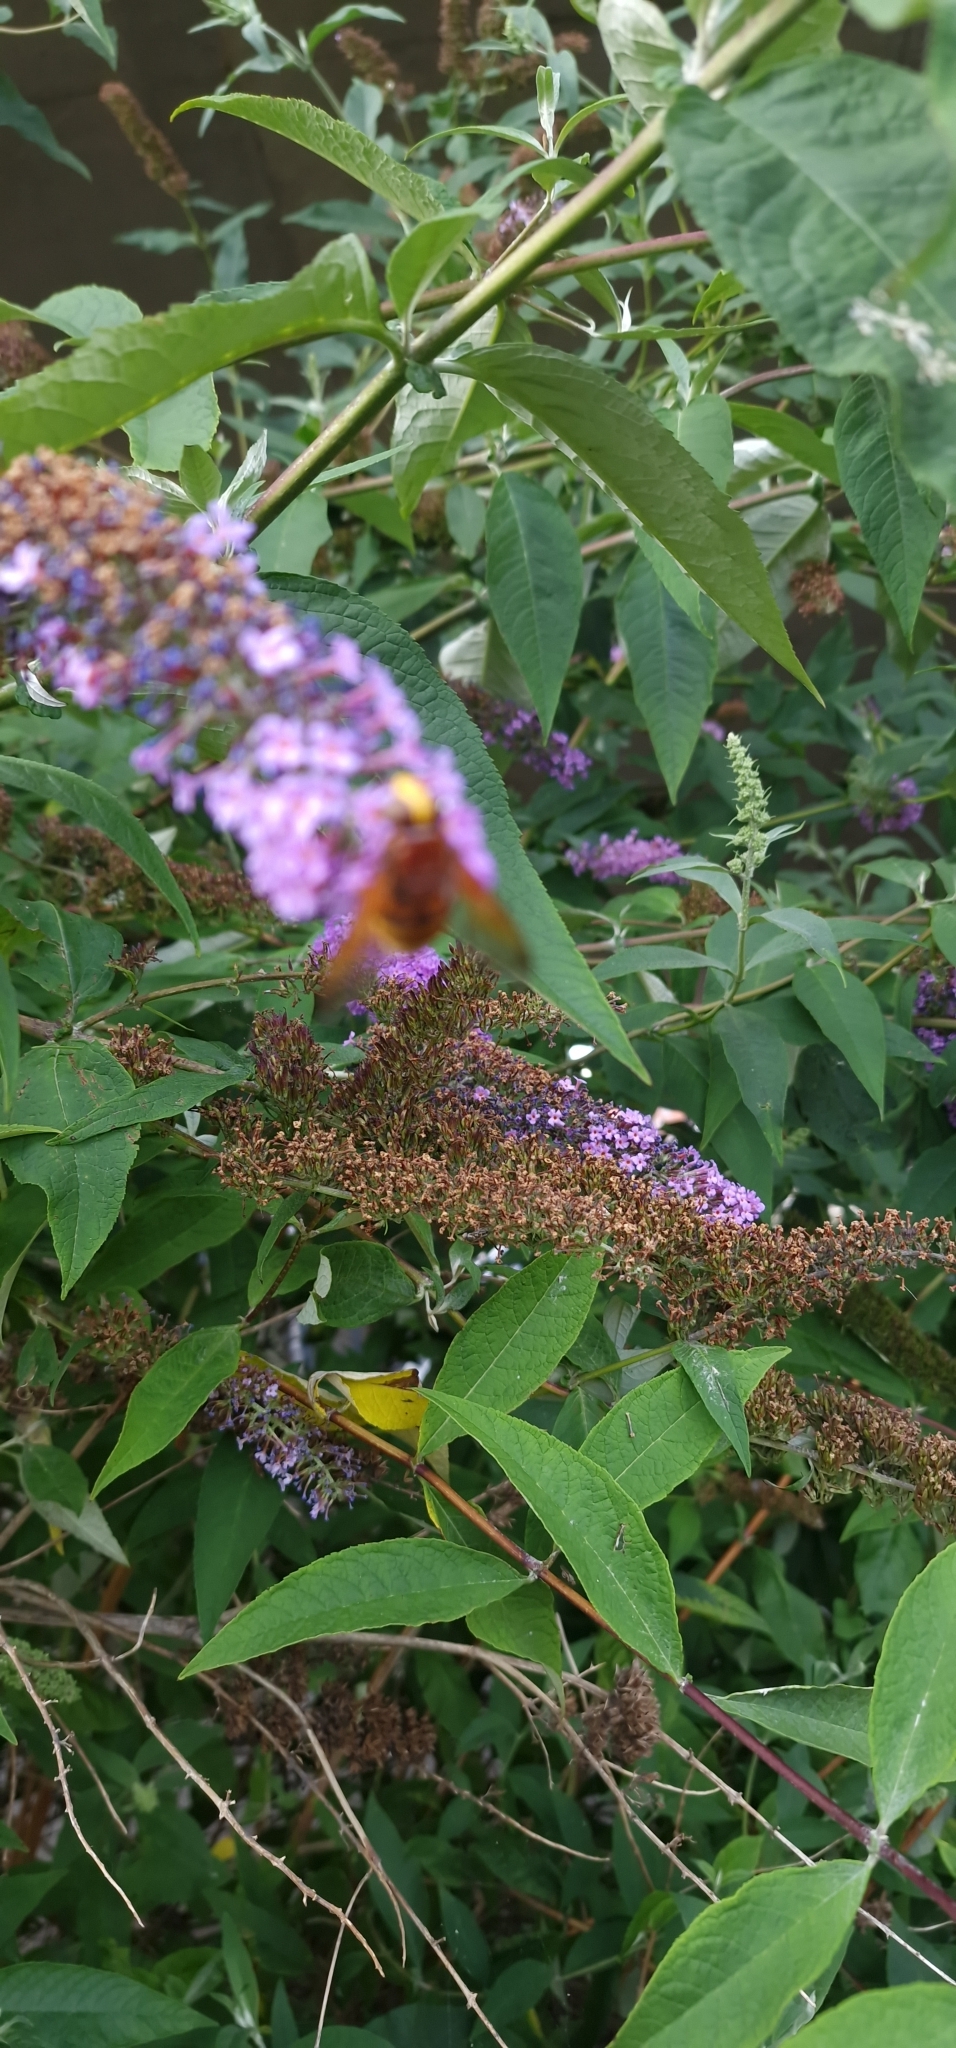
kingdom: Animalia
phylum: Arthropoda
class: Insecta
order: Diptera
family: Syrphidae
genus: Volucella
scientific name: Volucella zonaria
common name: Hornet hoverfly
